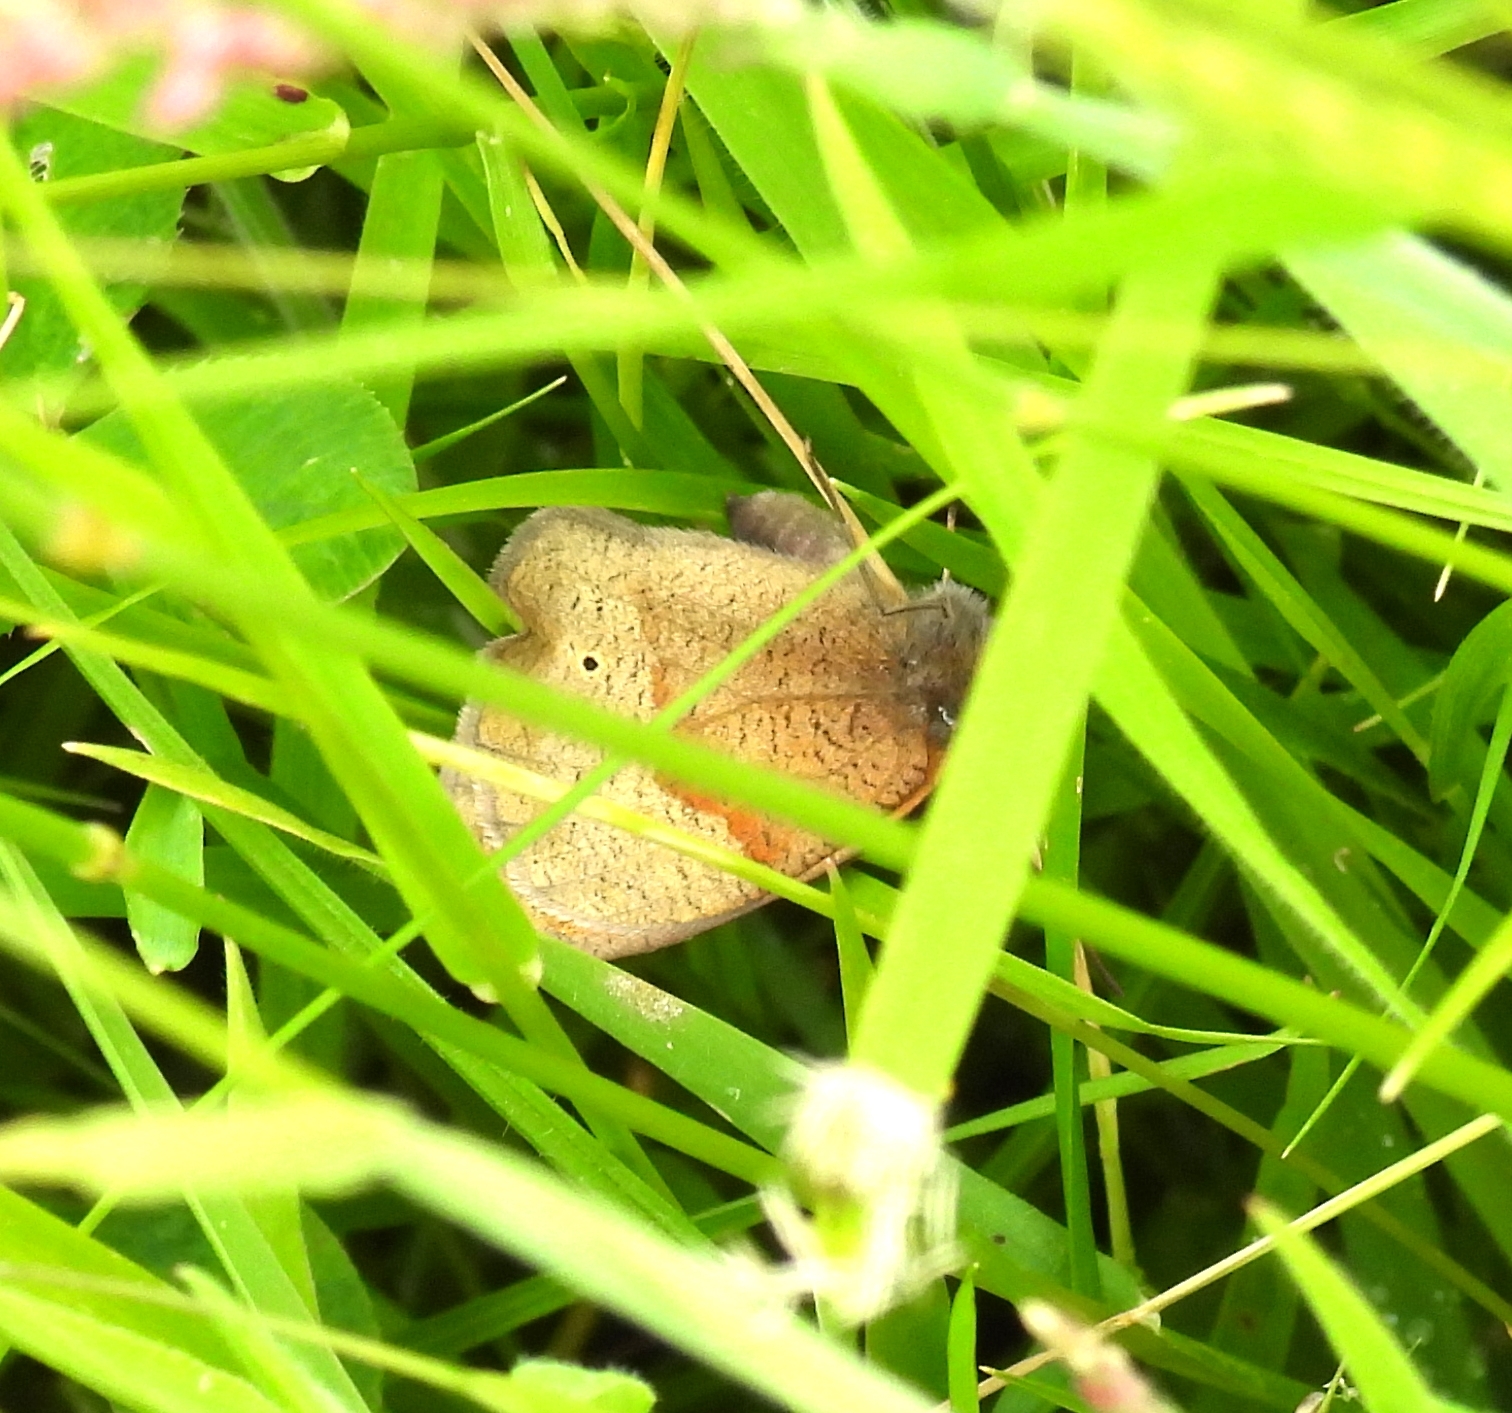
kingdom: Animalia
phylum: Arthropoda
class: Insecta
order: Lepidoptera
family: Nymphalidae
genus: Maniola
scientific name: Maniola jurtina
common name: Meadow brown
